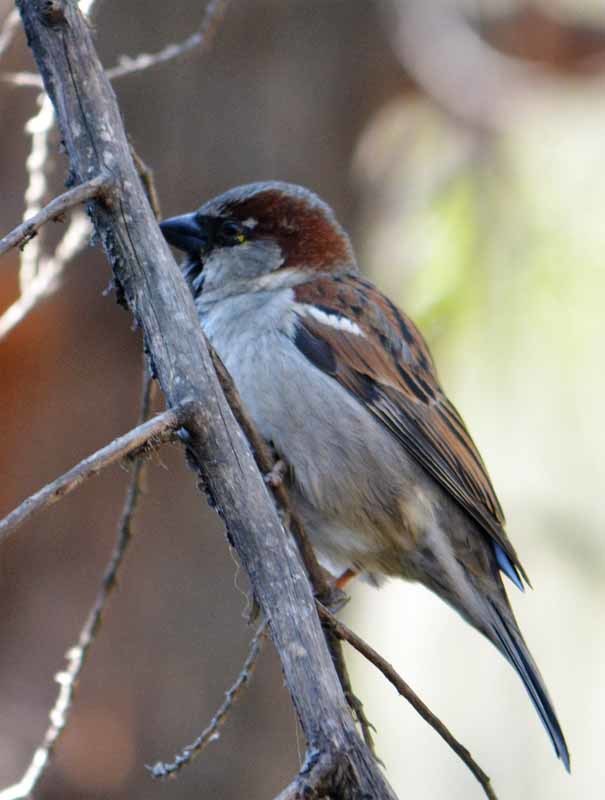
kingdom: Animalia
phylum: Chordata
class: Aves
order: Passeriformes
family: Passeridae
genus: Passer
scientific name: Passer domesticus
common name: House sparrow
